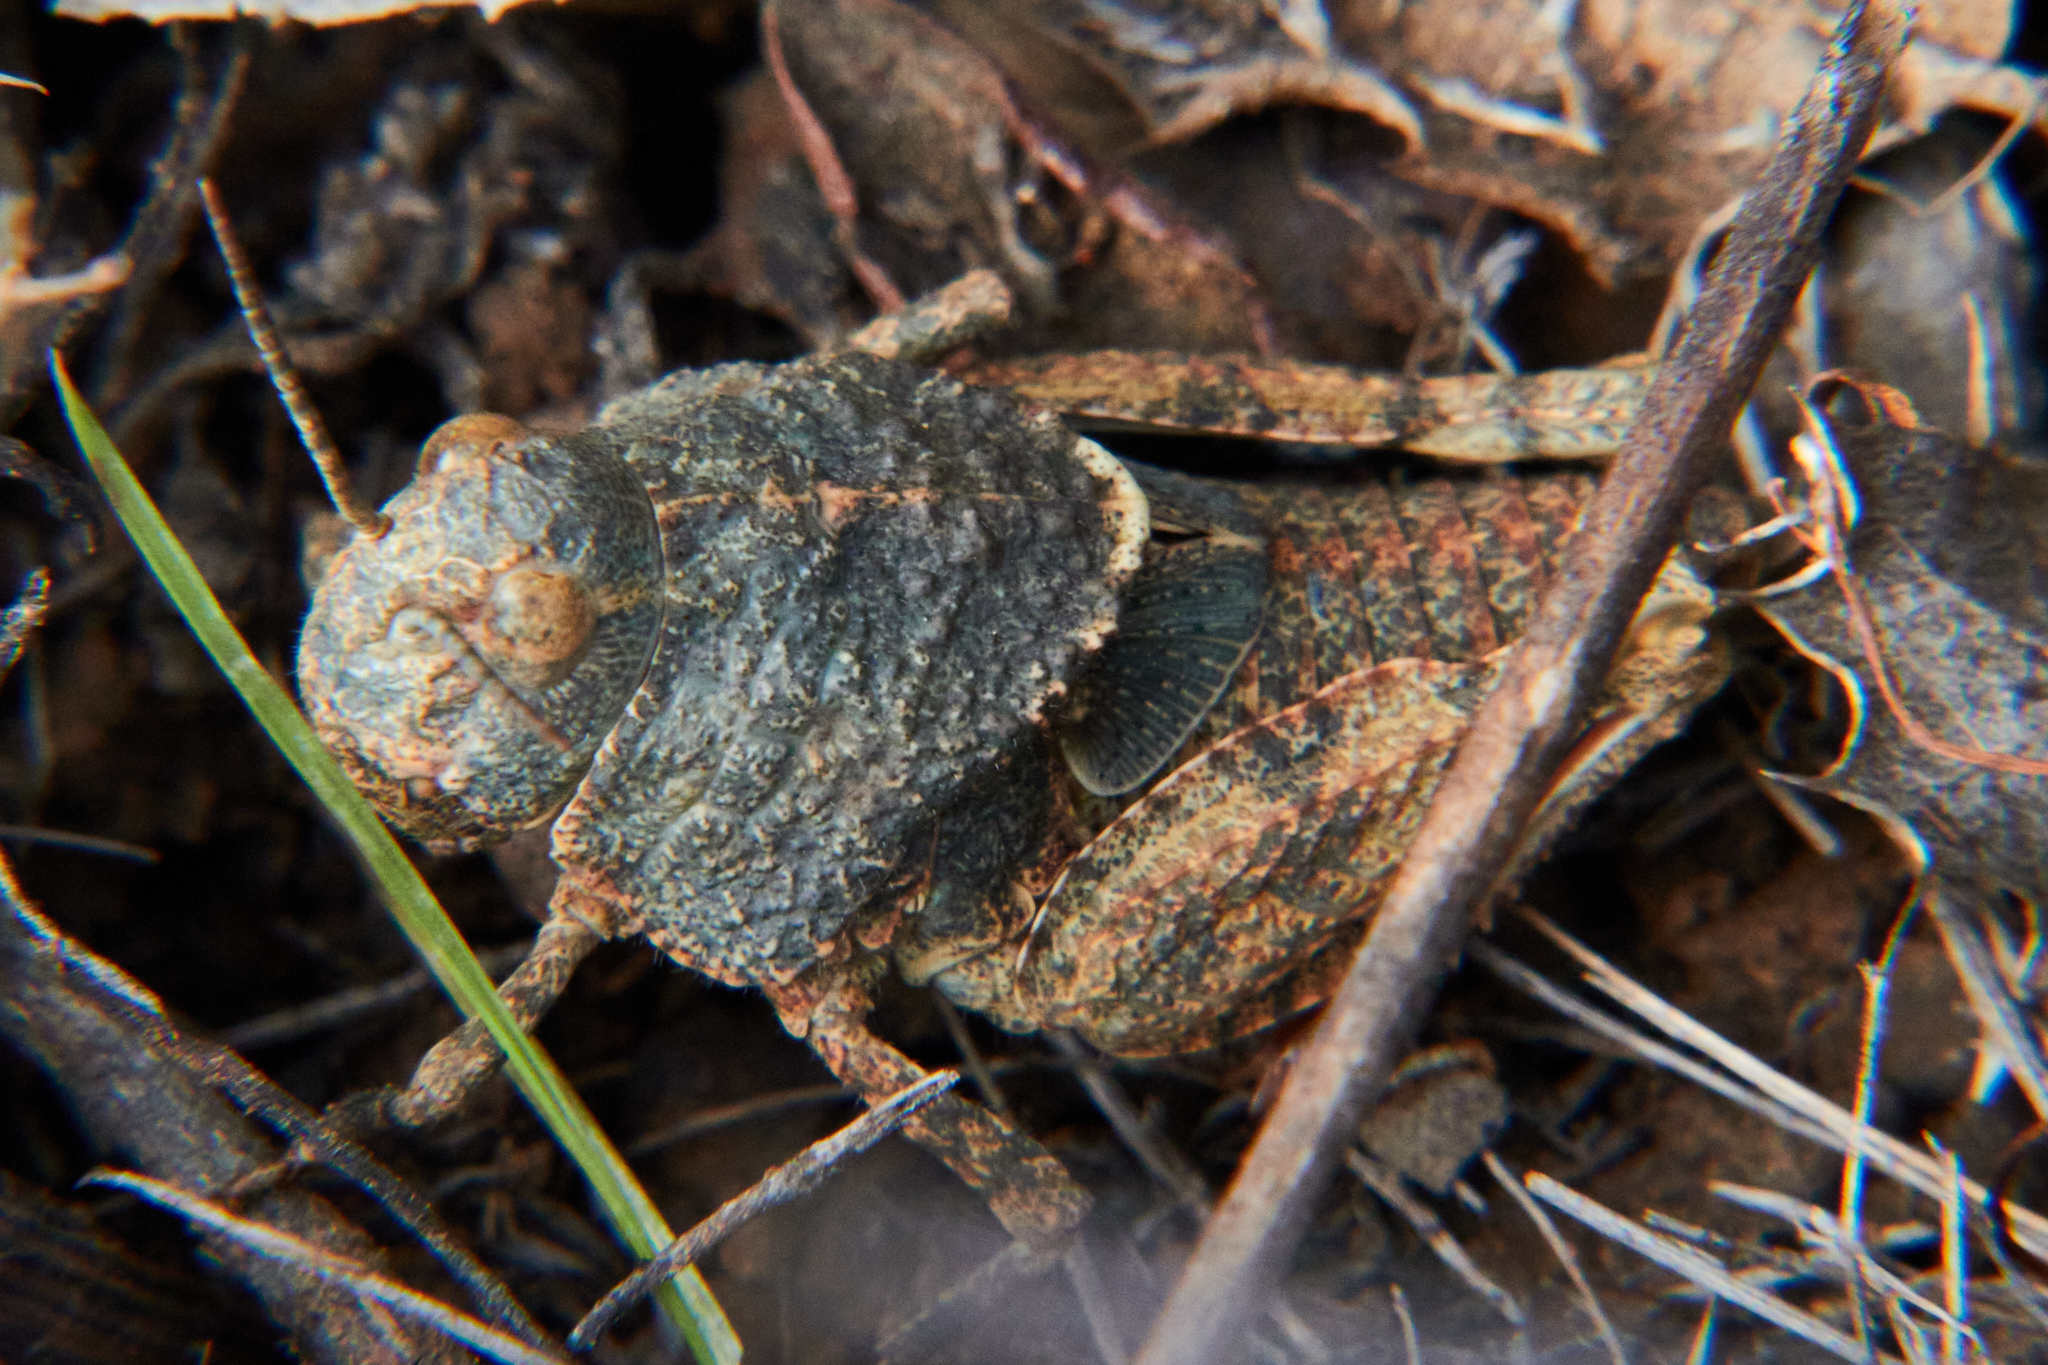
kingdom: Animalia
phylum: Arthropoda
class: Insecta
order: Orthoptera
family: Acrididae
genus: Agymnastus
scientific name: Agymnastus ingens
